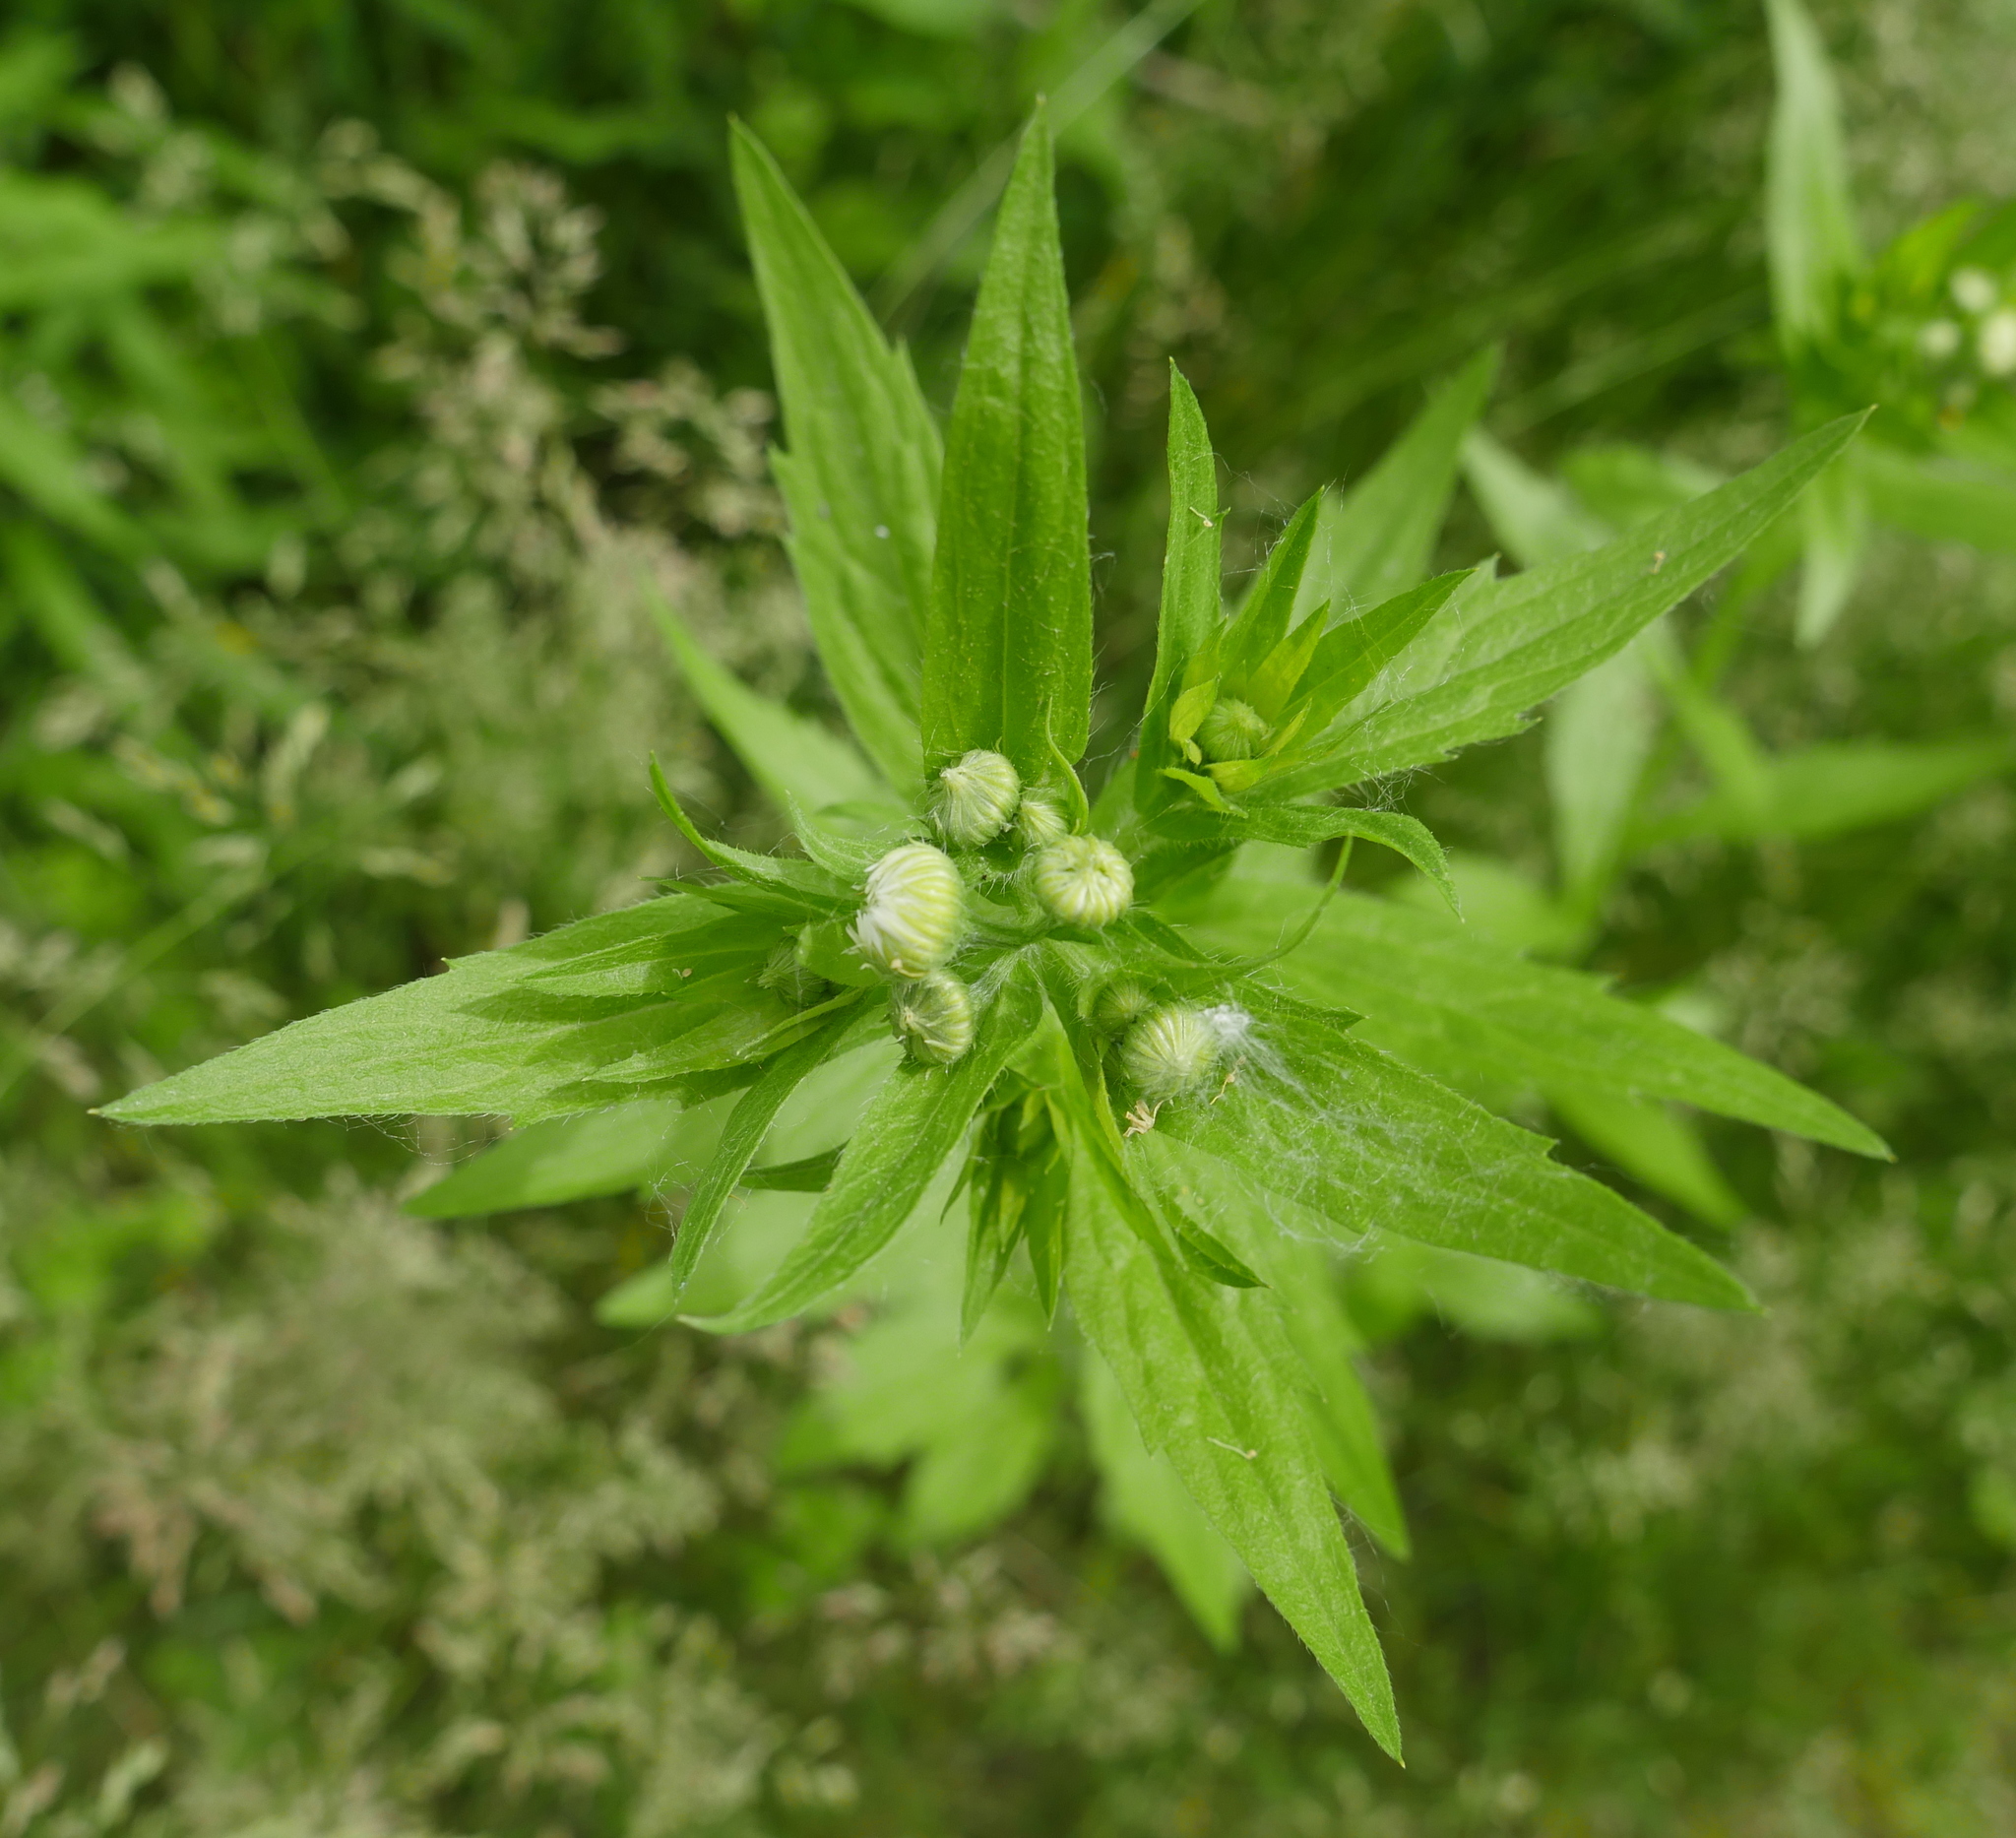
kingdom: Plantae
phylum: Tracheophyta
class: Magnoliopsida
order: Asterales
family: Asteraceae
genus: Erigeron
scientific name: Erigeron annuus
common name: Tall fleabane
